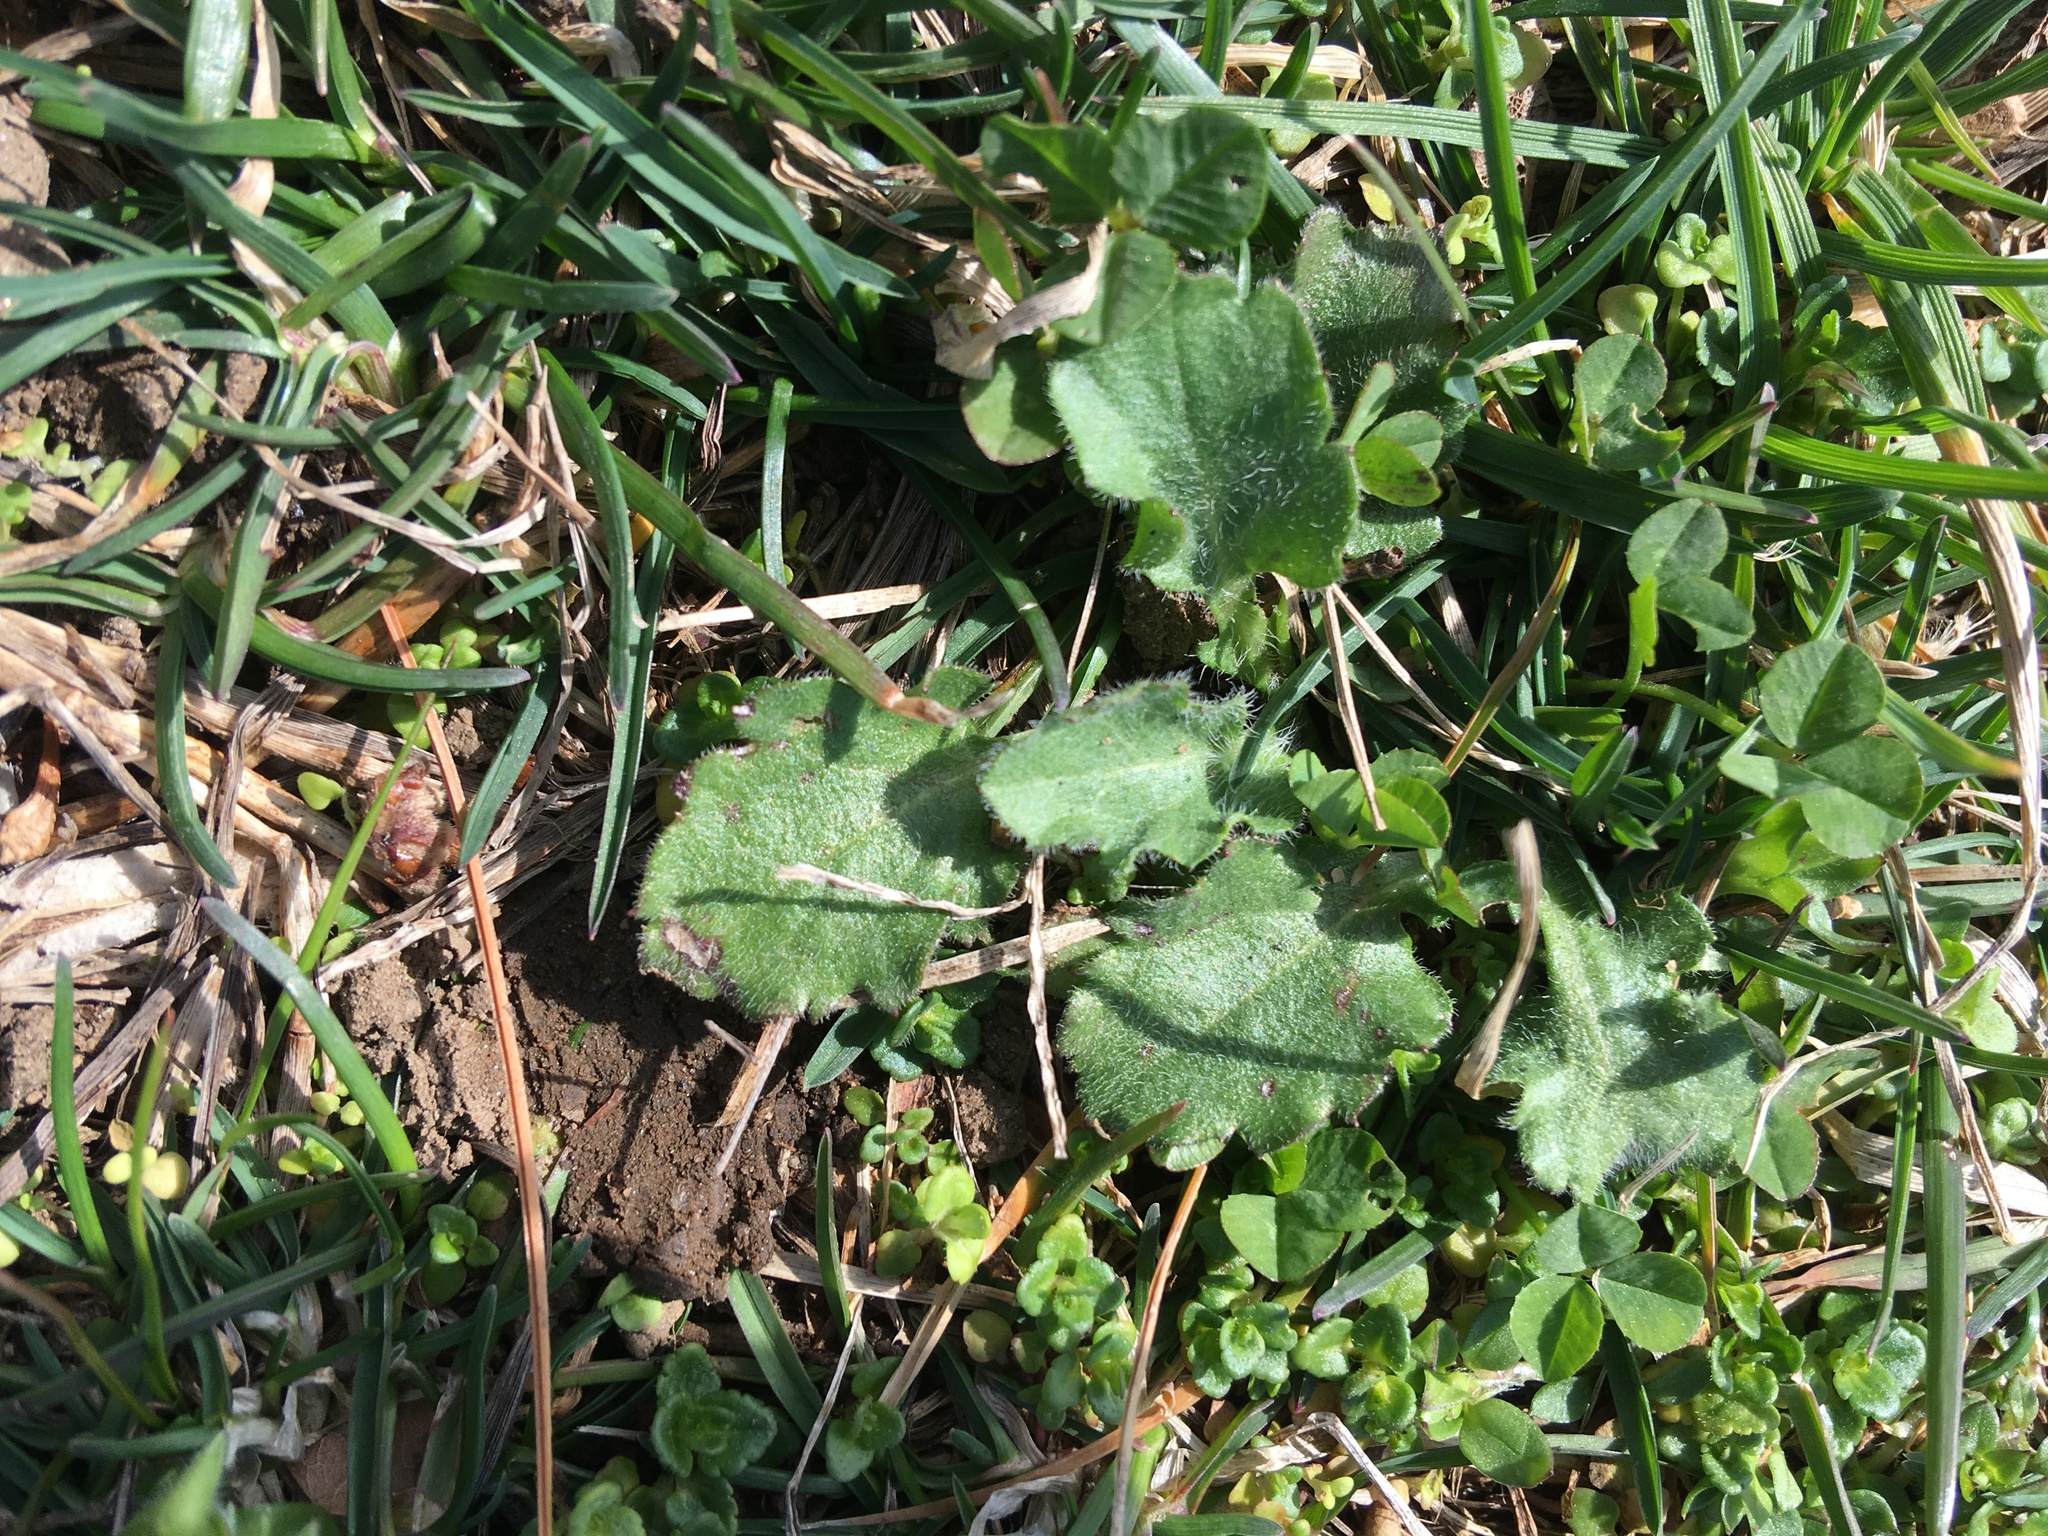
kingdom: Plantae
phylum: Tracheophyta
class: Magnoliopsida
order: Ranunculales
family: Ranunculaceae
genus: Ficaria
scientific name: Ficaria verna
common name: Lesser celandine
